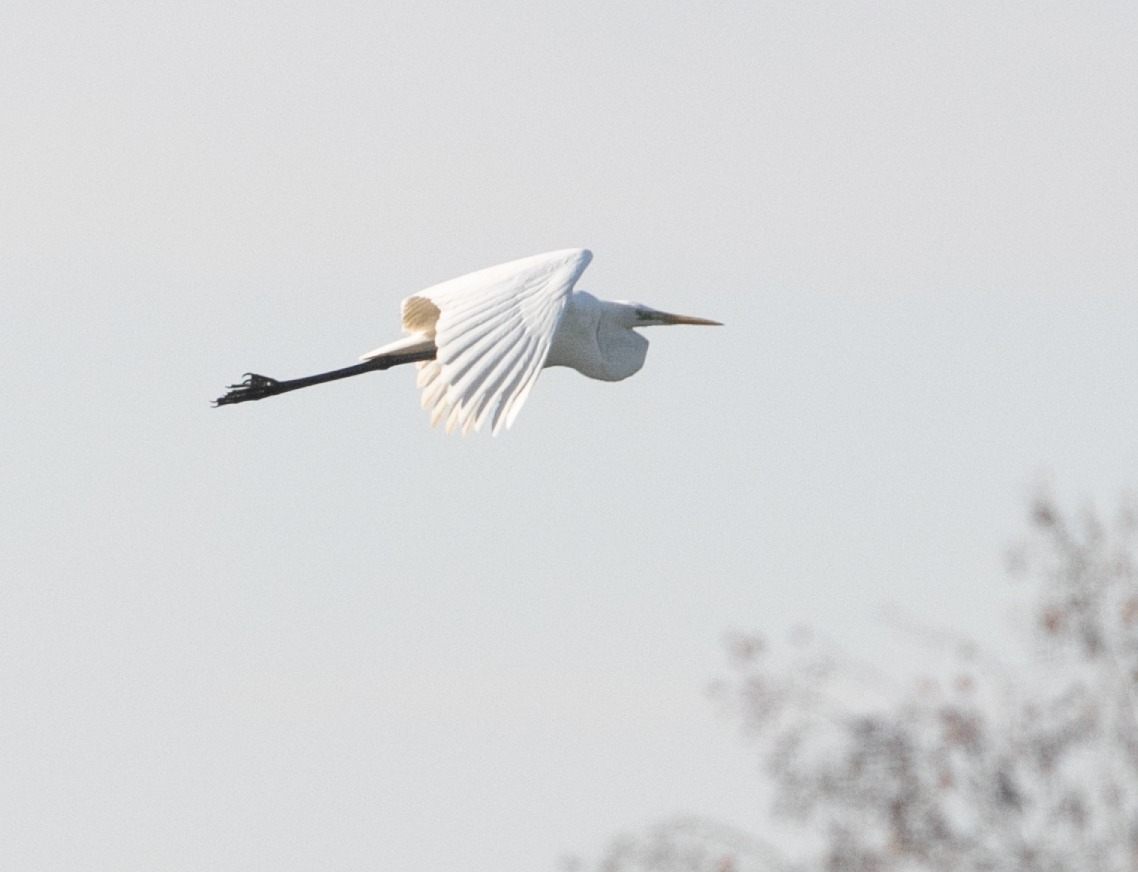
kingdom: Animalia
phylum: Chordata
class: Aves
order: Pelecaniformes
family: Ardeidae
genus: Ardea
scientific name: Ardea alba
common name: Great egret
